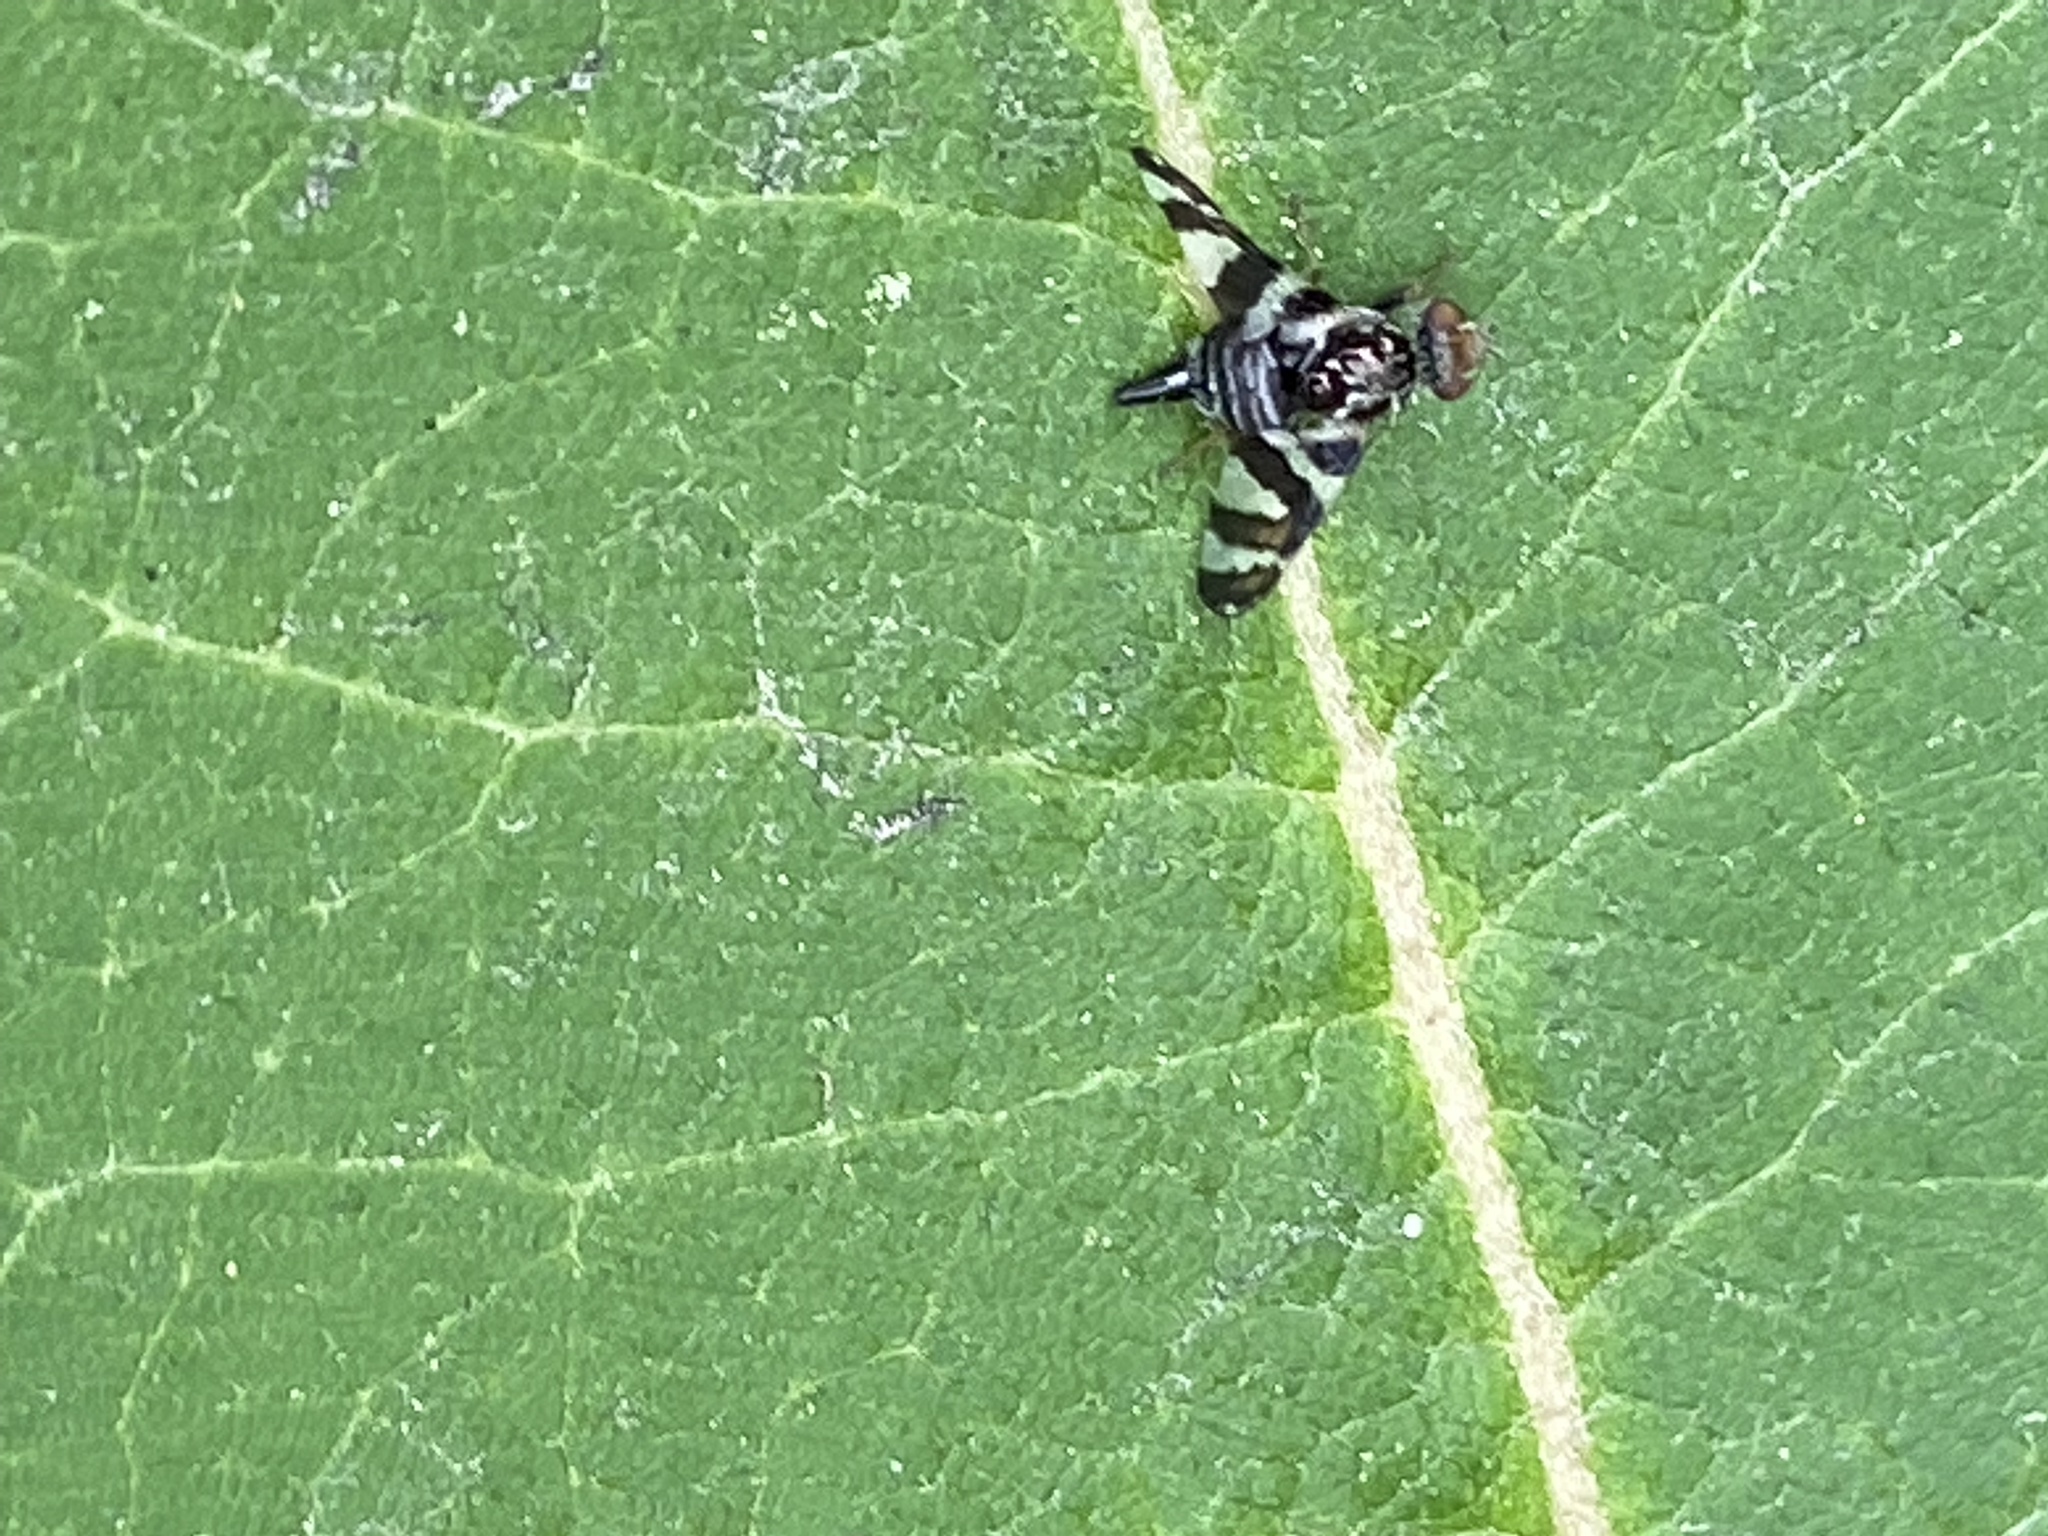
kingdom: Animalia
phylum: Arthropoda
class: Insecta
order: Diptera
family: Tephritidae
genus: Procecidochares
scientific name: Procecidochares atra
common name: Goldenrod brussels sprout gall fly
